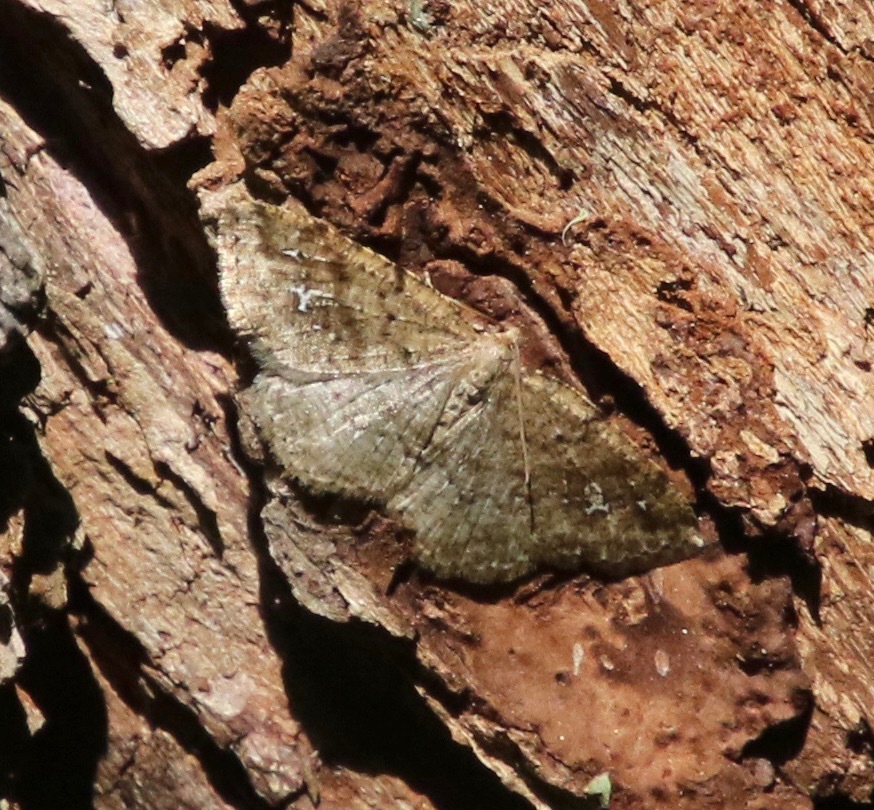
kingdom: Animalia
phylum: Arthropoda
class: Insecta
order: Lepidoptera
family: Geometridae
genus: Homochlodes
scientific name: Homochlodes fritillaria
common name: Pale homochlodes
